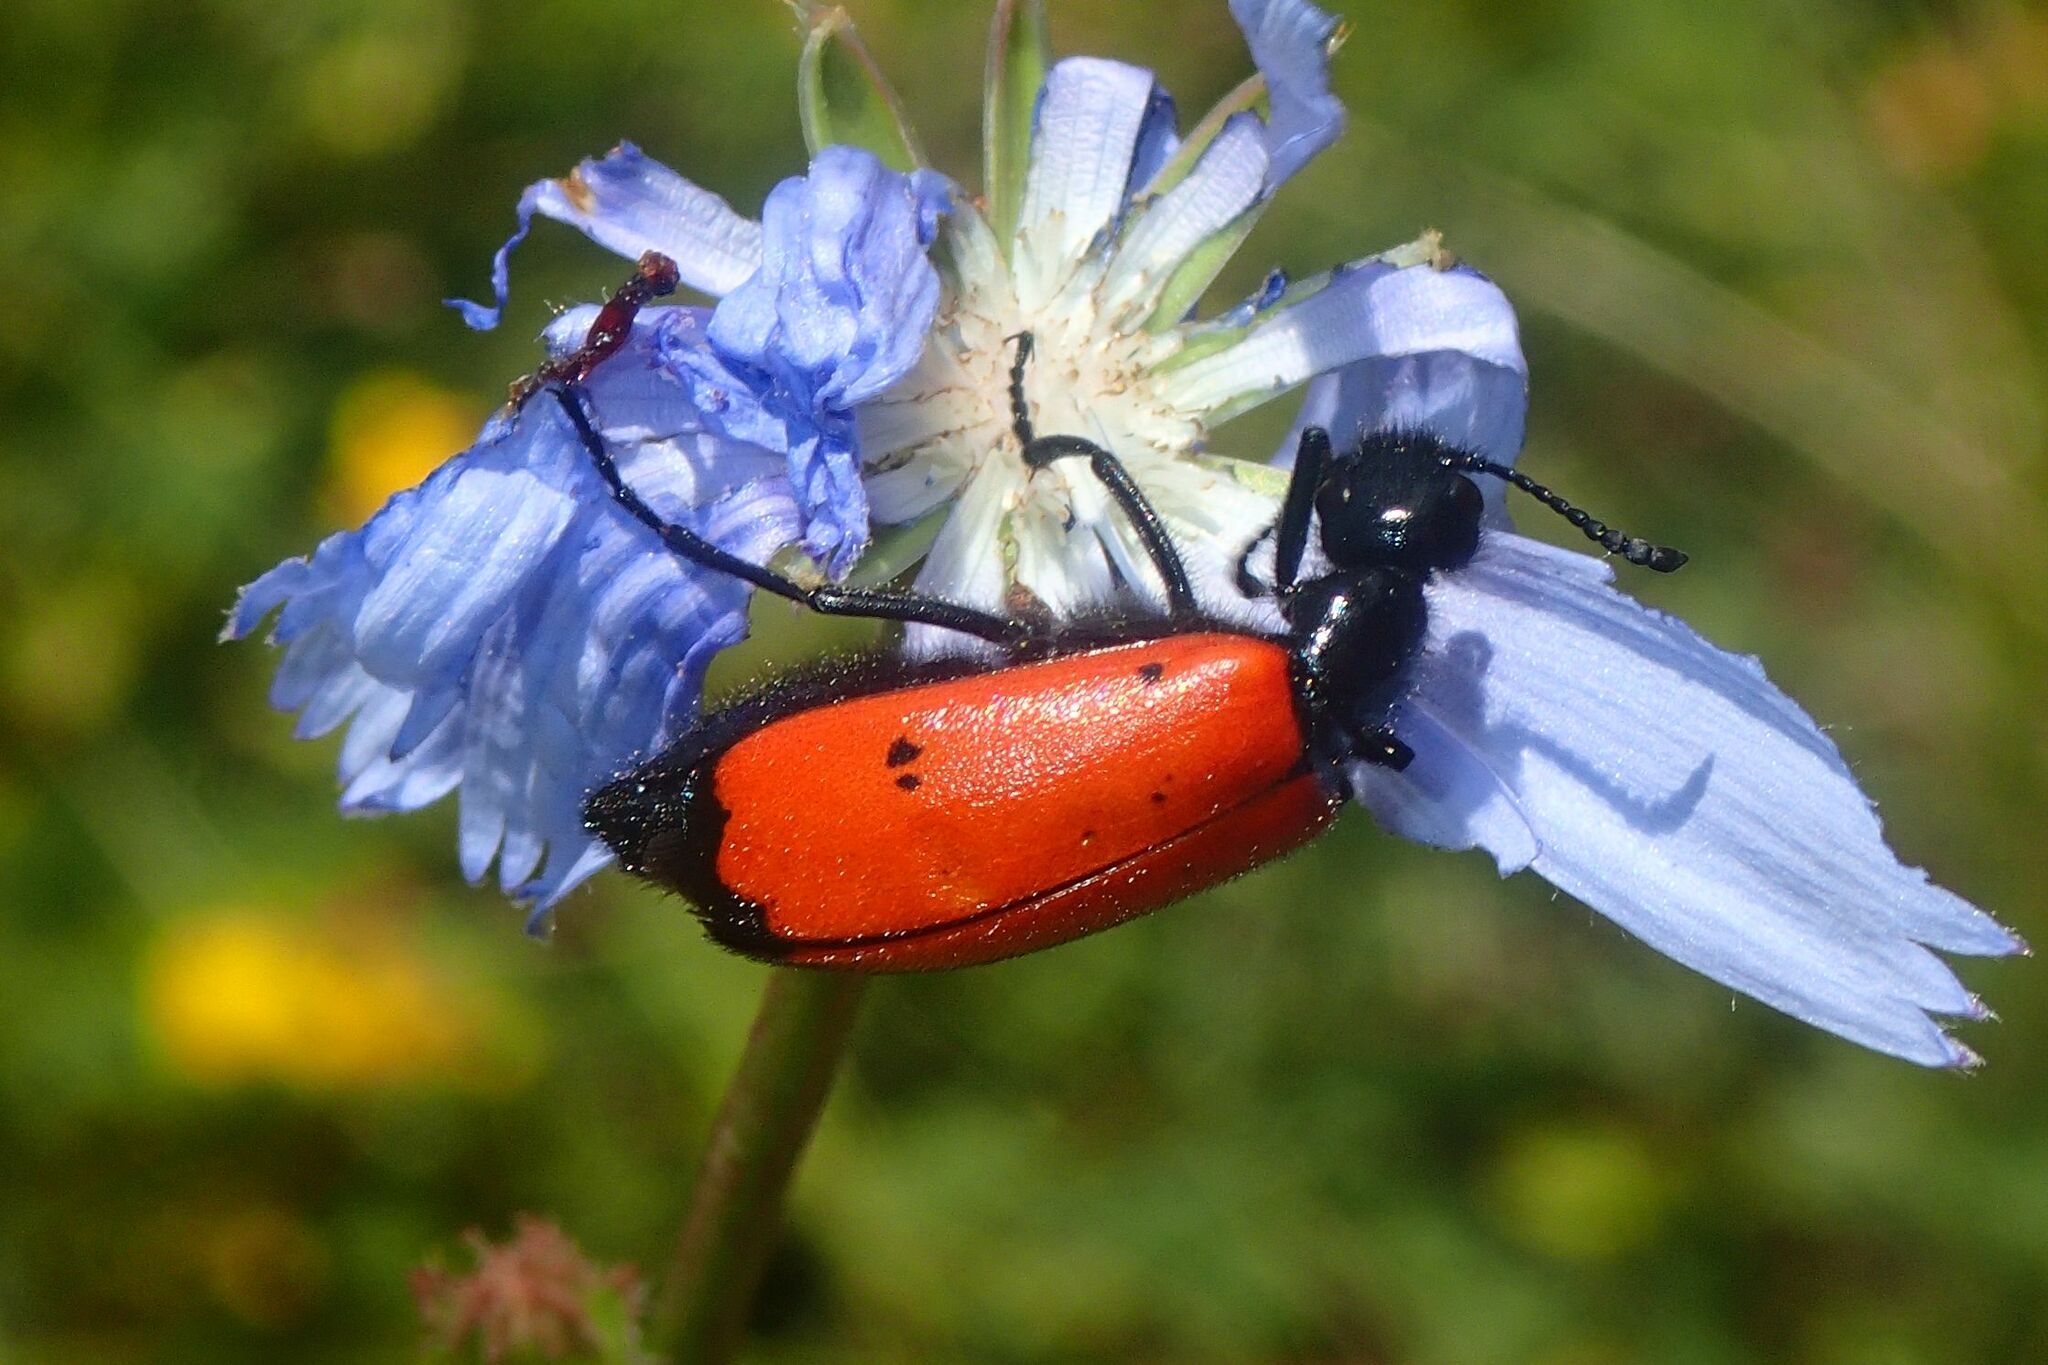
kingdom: Animalia
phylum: Arthropoda
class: Insecta
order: Coleoptera
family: Meloidae
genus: Mylabris
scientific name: Mylabris quadripunctata
